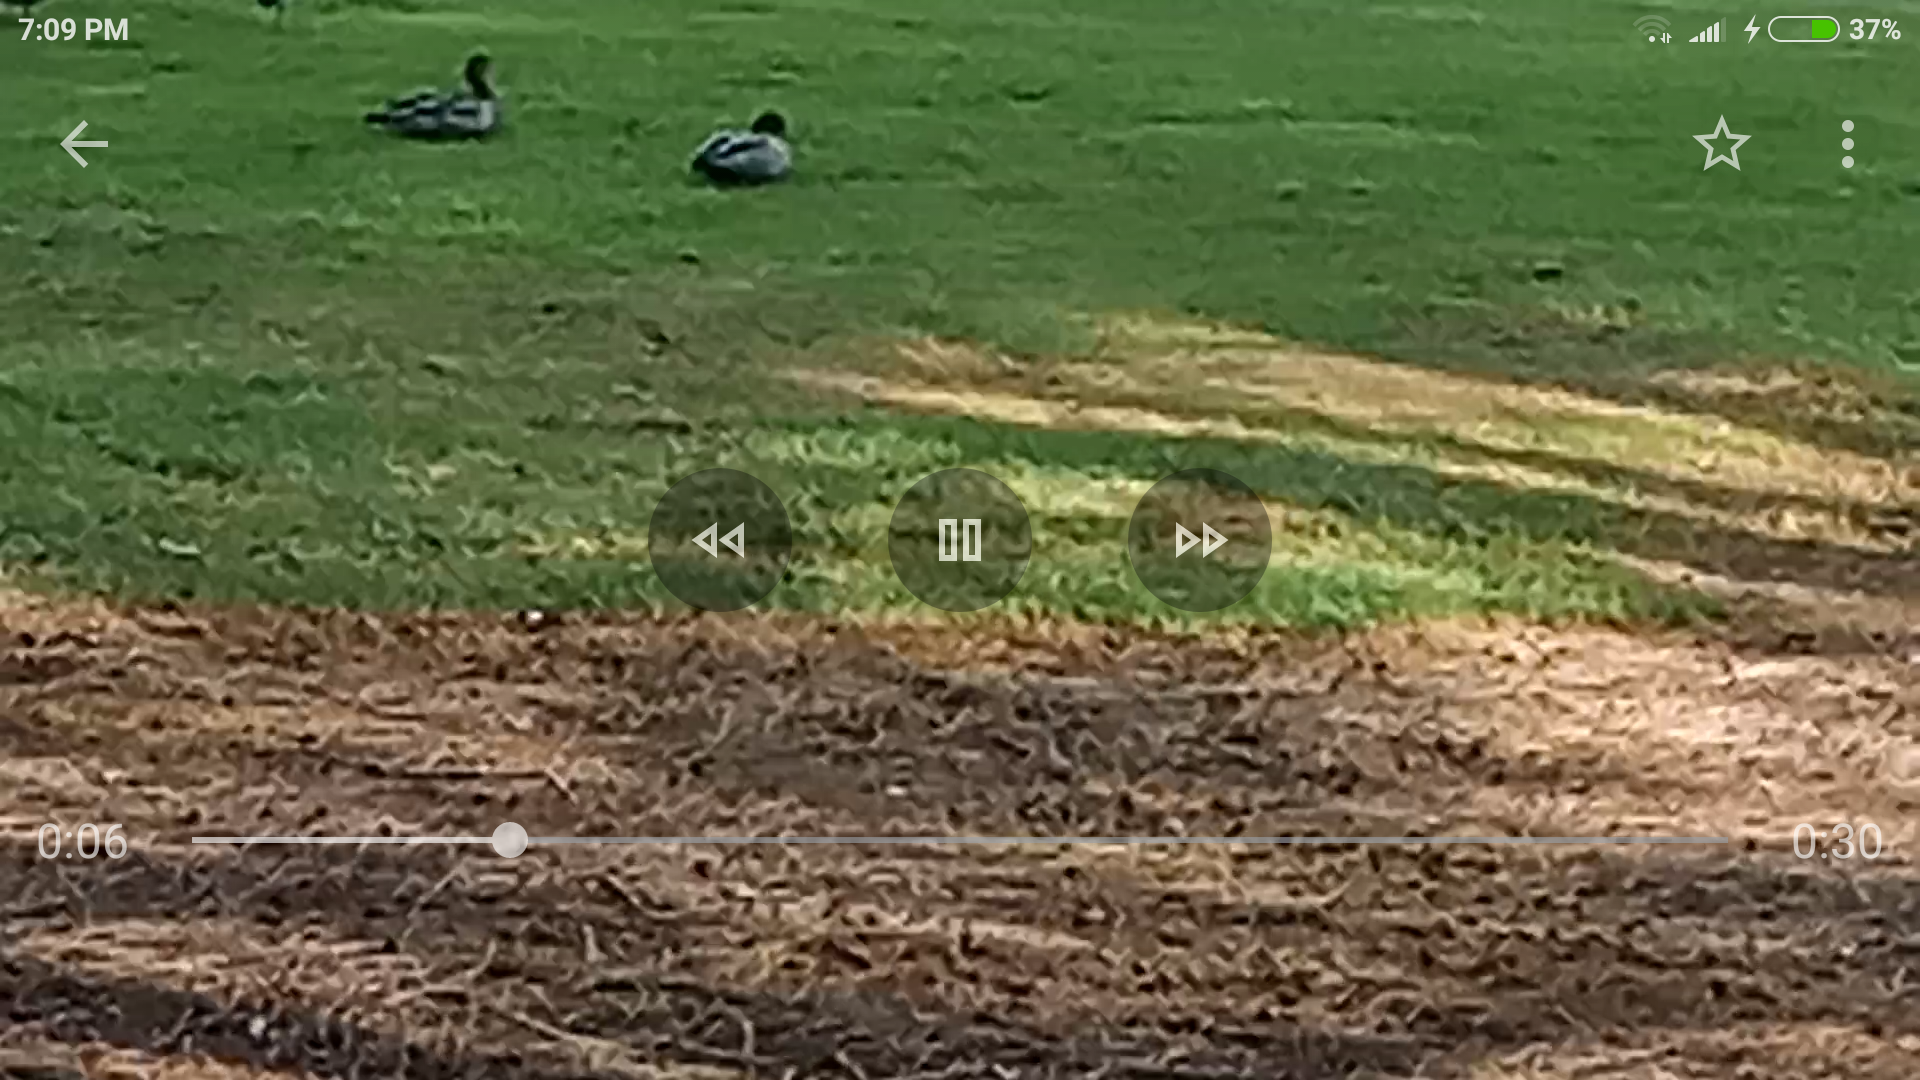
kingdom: Animalia
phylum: Chordata
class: Aves
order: Anseriformes
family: Anatidae
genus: Chenonetta
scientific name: Chenonetta jubata
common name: Maned duck
